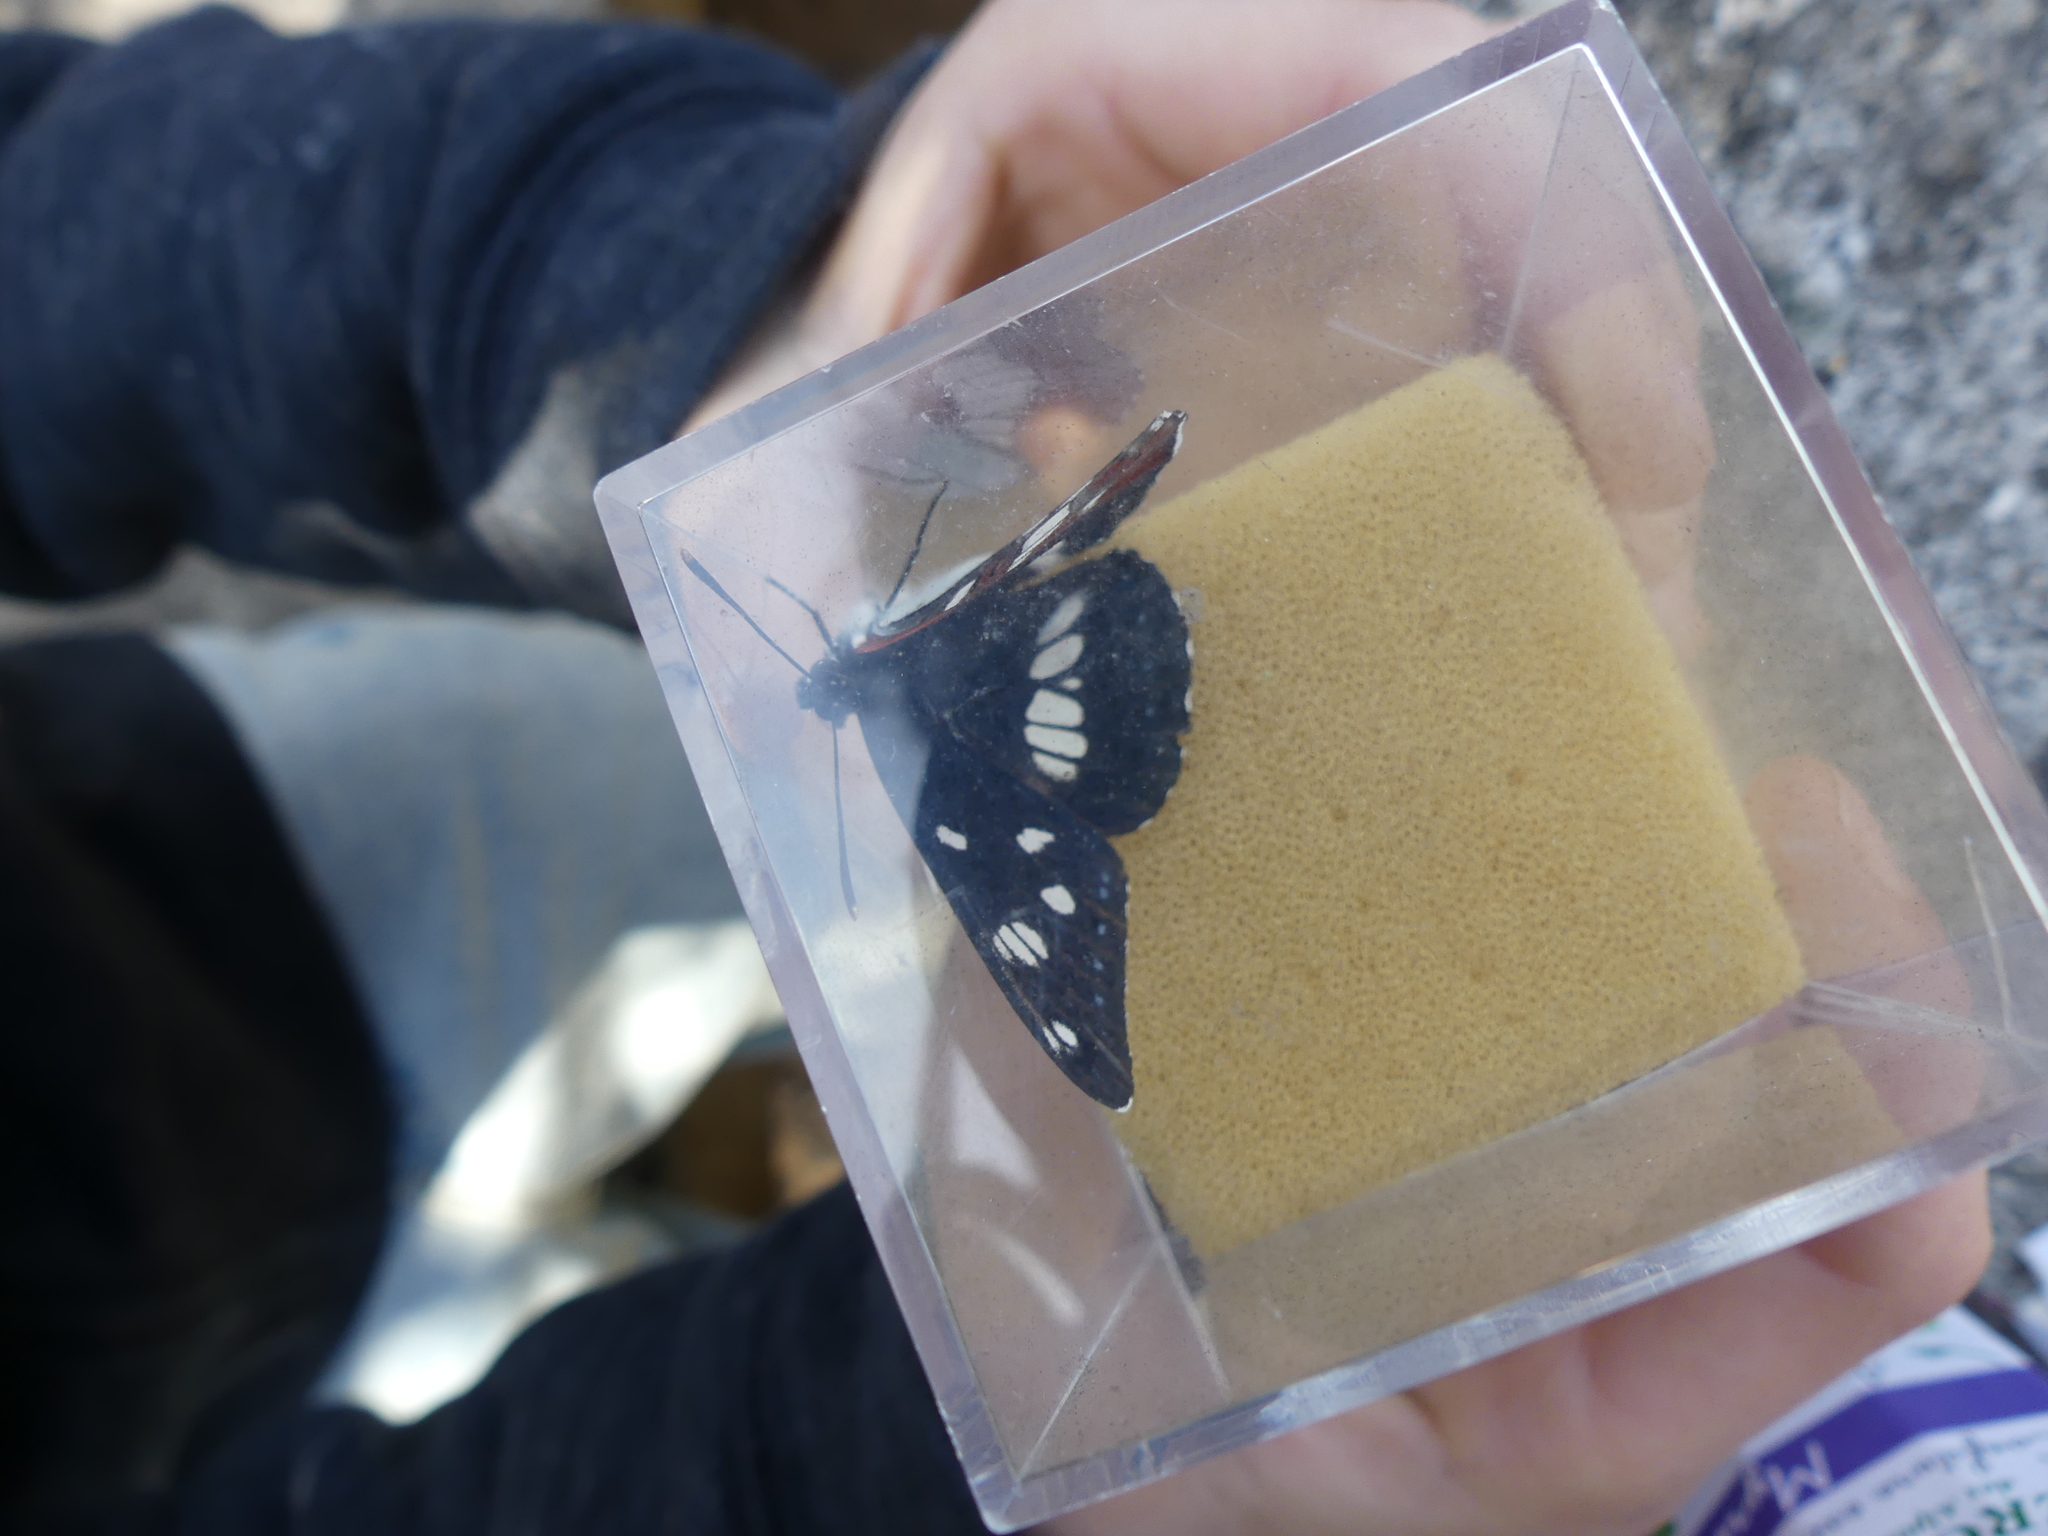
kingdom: Animalia
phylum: Arthropoda
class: Insecta
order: Lepidoptera
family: Nymphalidae
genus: Limenitis
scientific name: Limenitis reducta
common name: Southern white admiral
